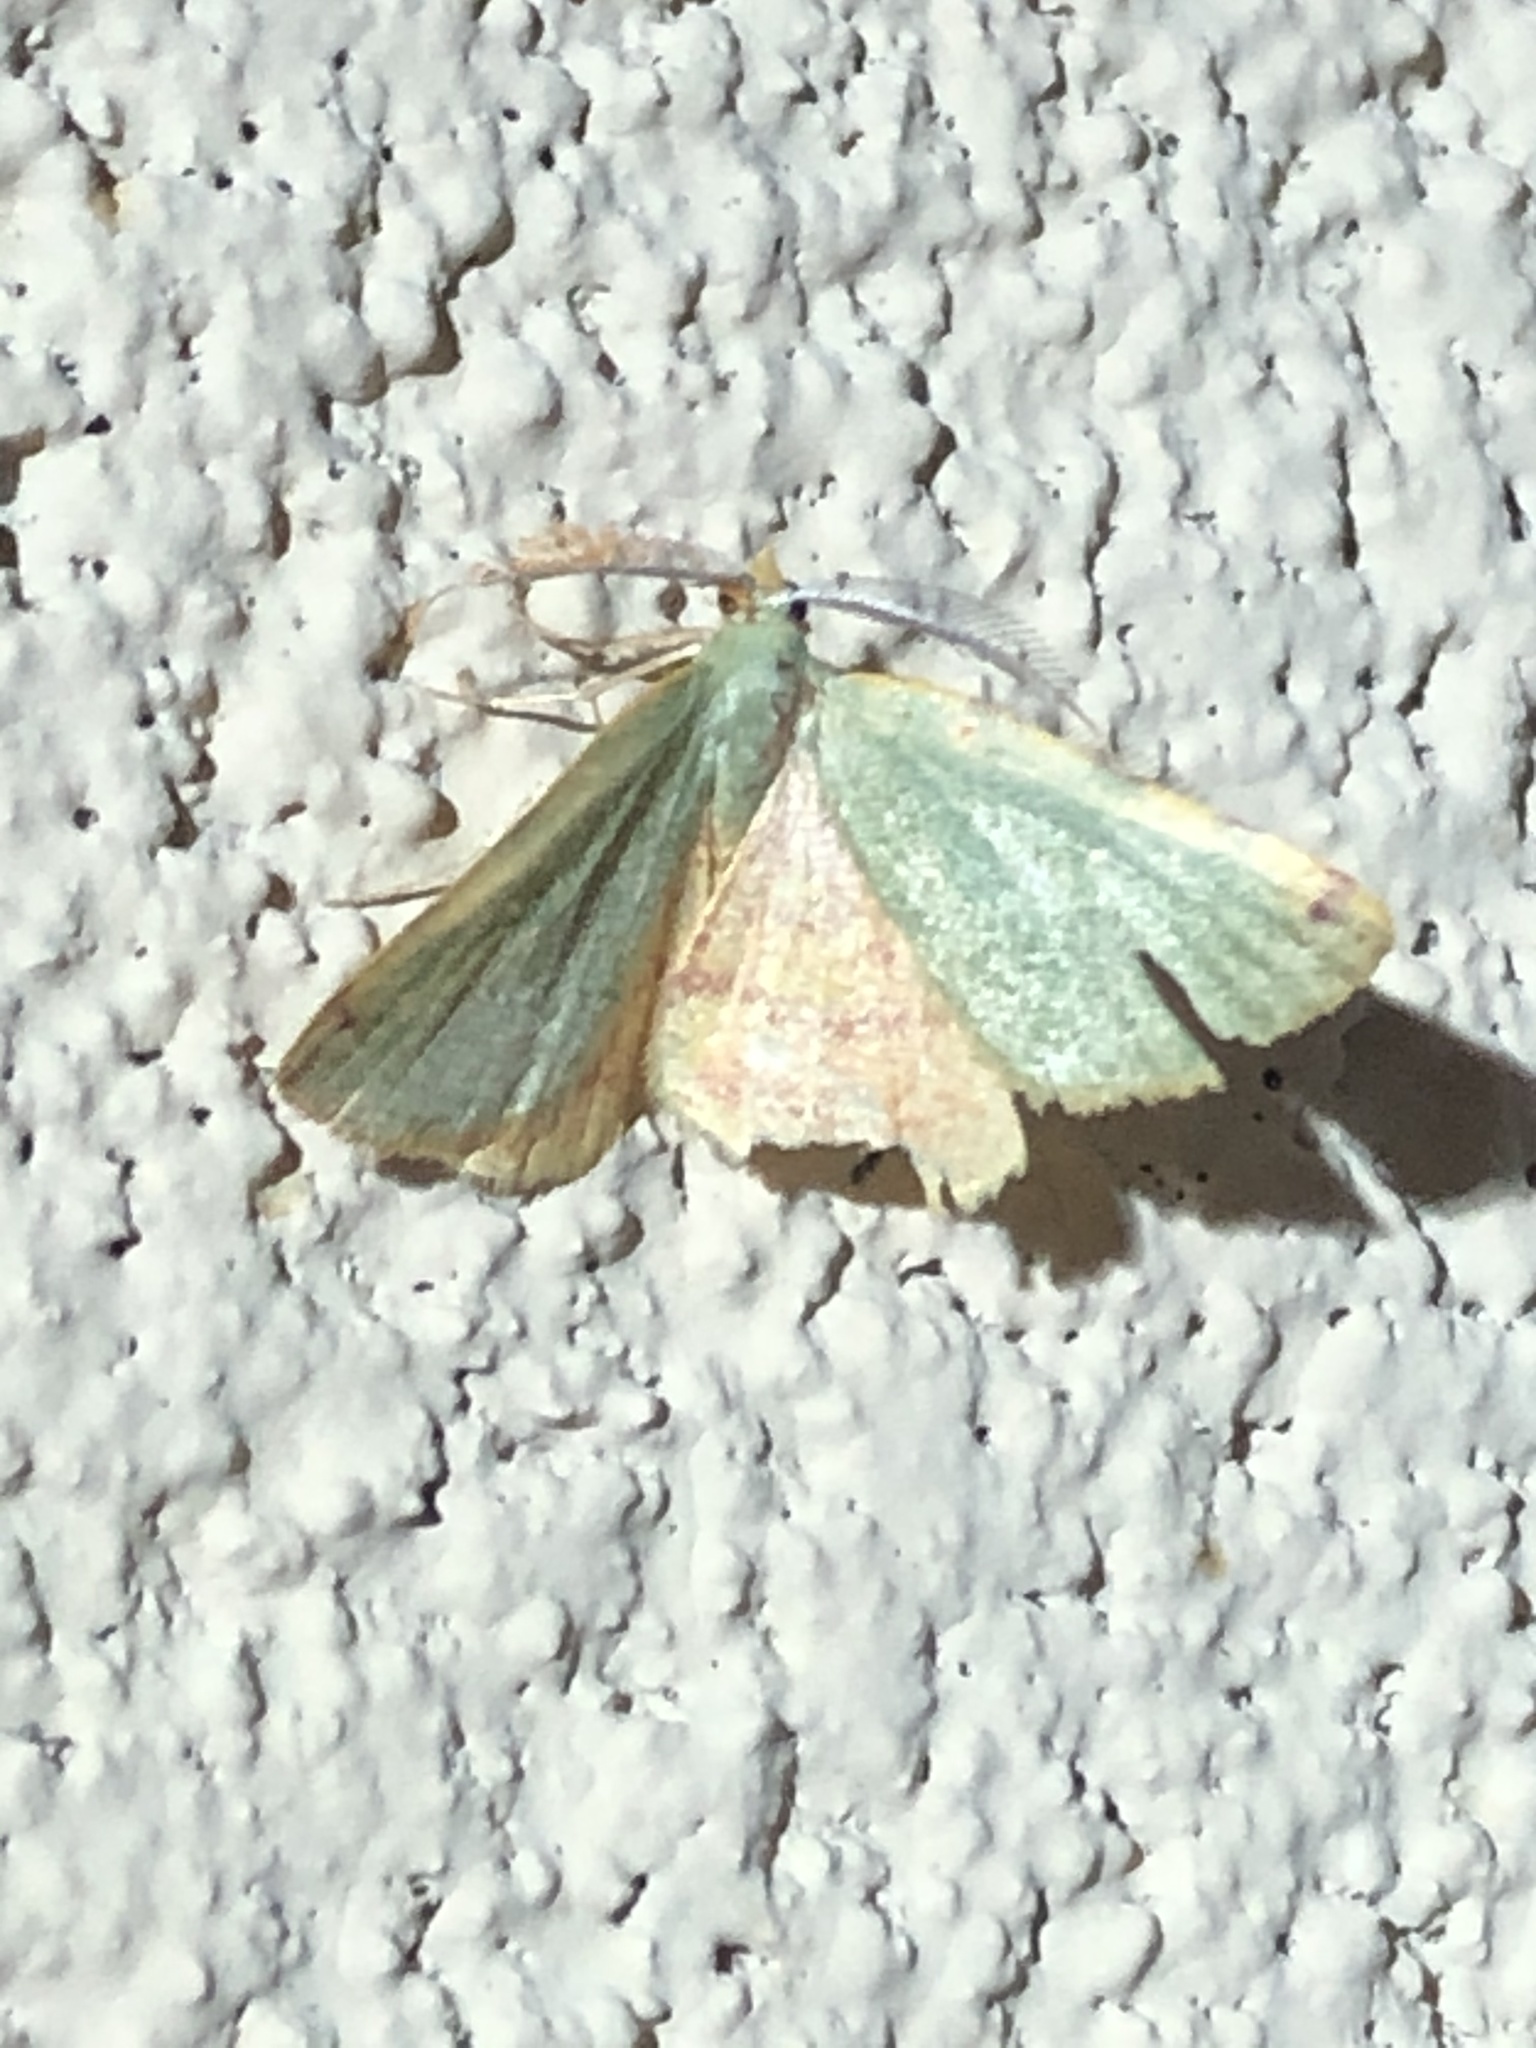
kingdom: Animalia
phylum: Arthropoda
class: Insecta
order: Lepidoptera
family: Geometridae
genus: Chloraspilates
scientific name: Chloraspilates bicoloraria
